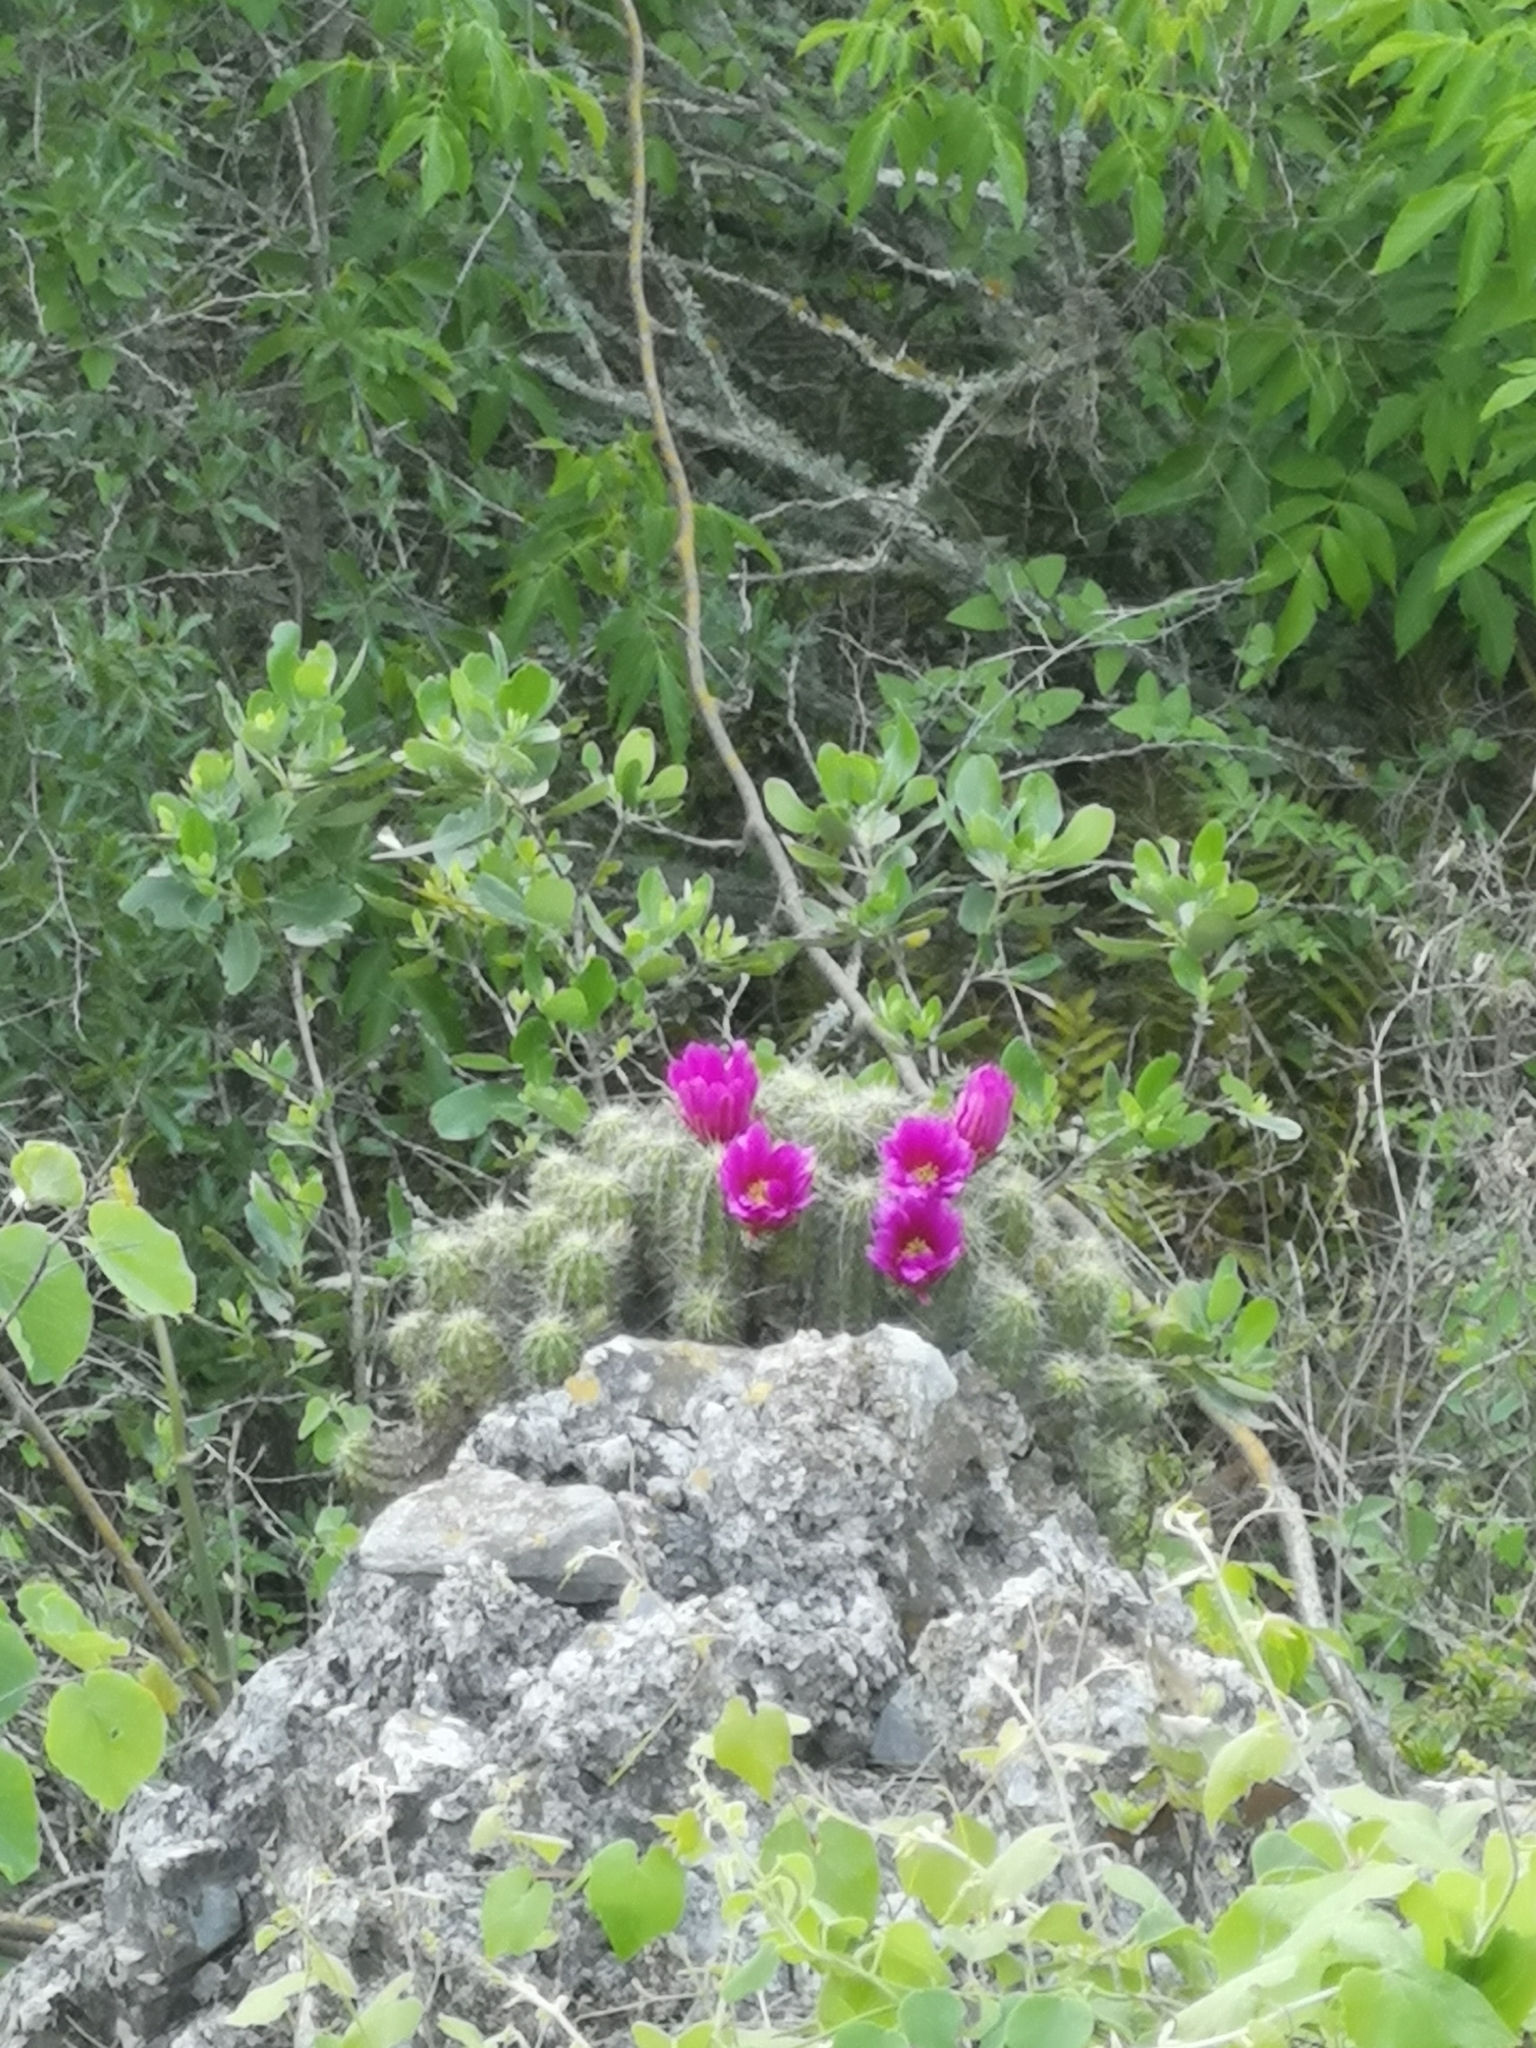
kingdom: Plantae
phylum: Tracheophyta
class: Magnoliopsida
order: Caryophyllales
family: Cactaceae
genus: Echinocereus
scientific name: Echinocereus stramineus
